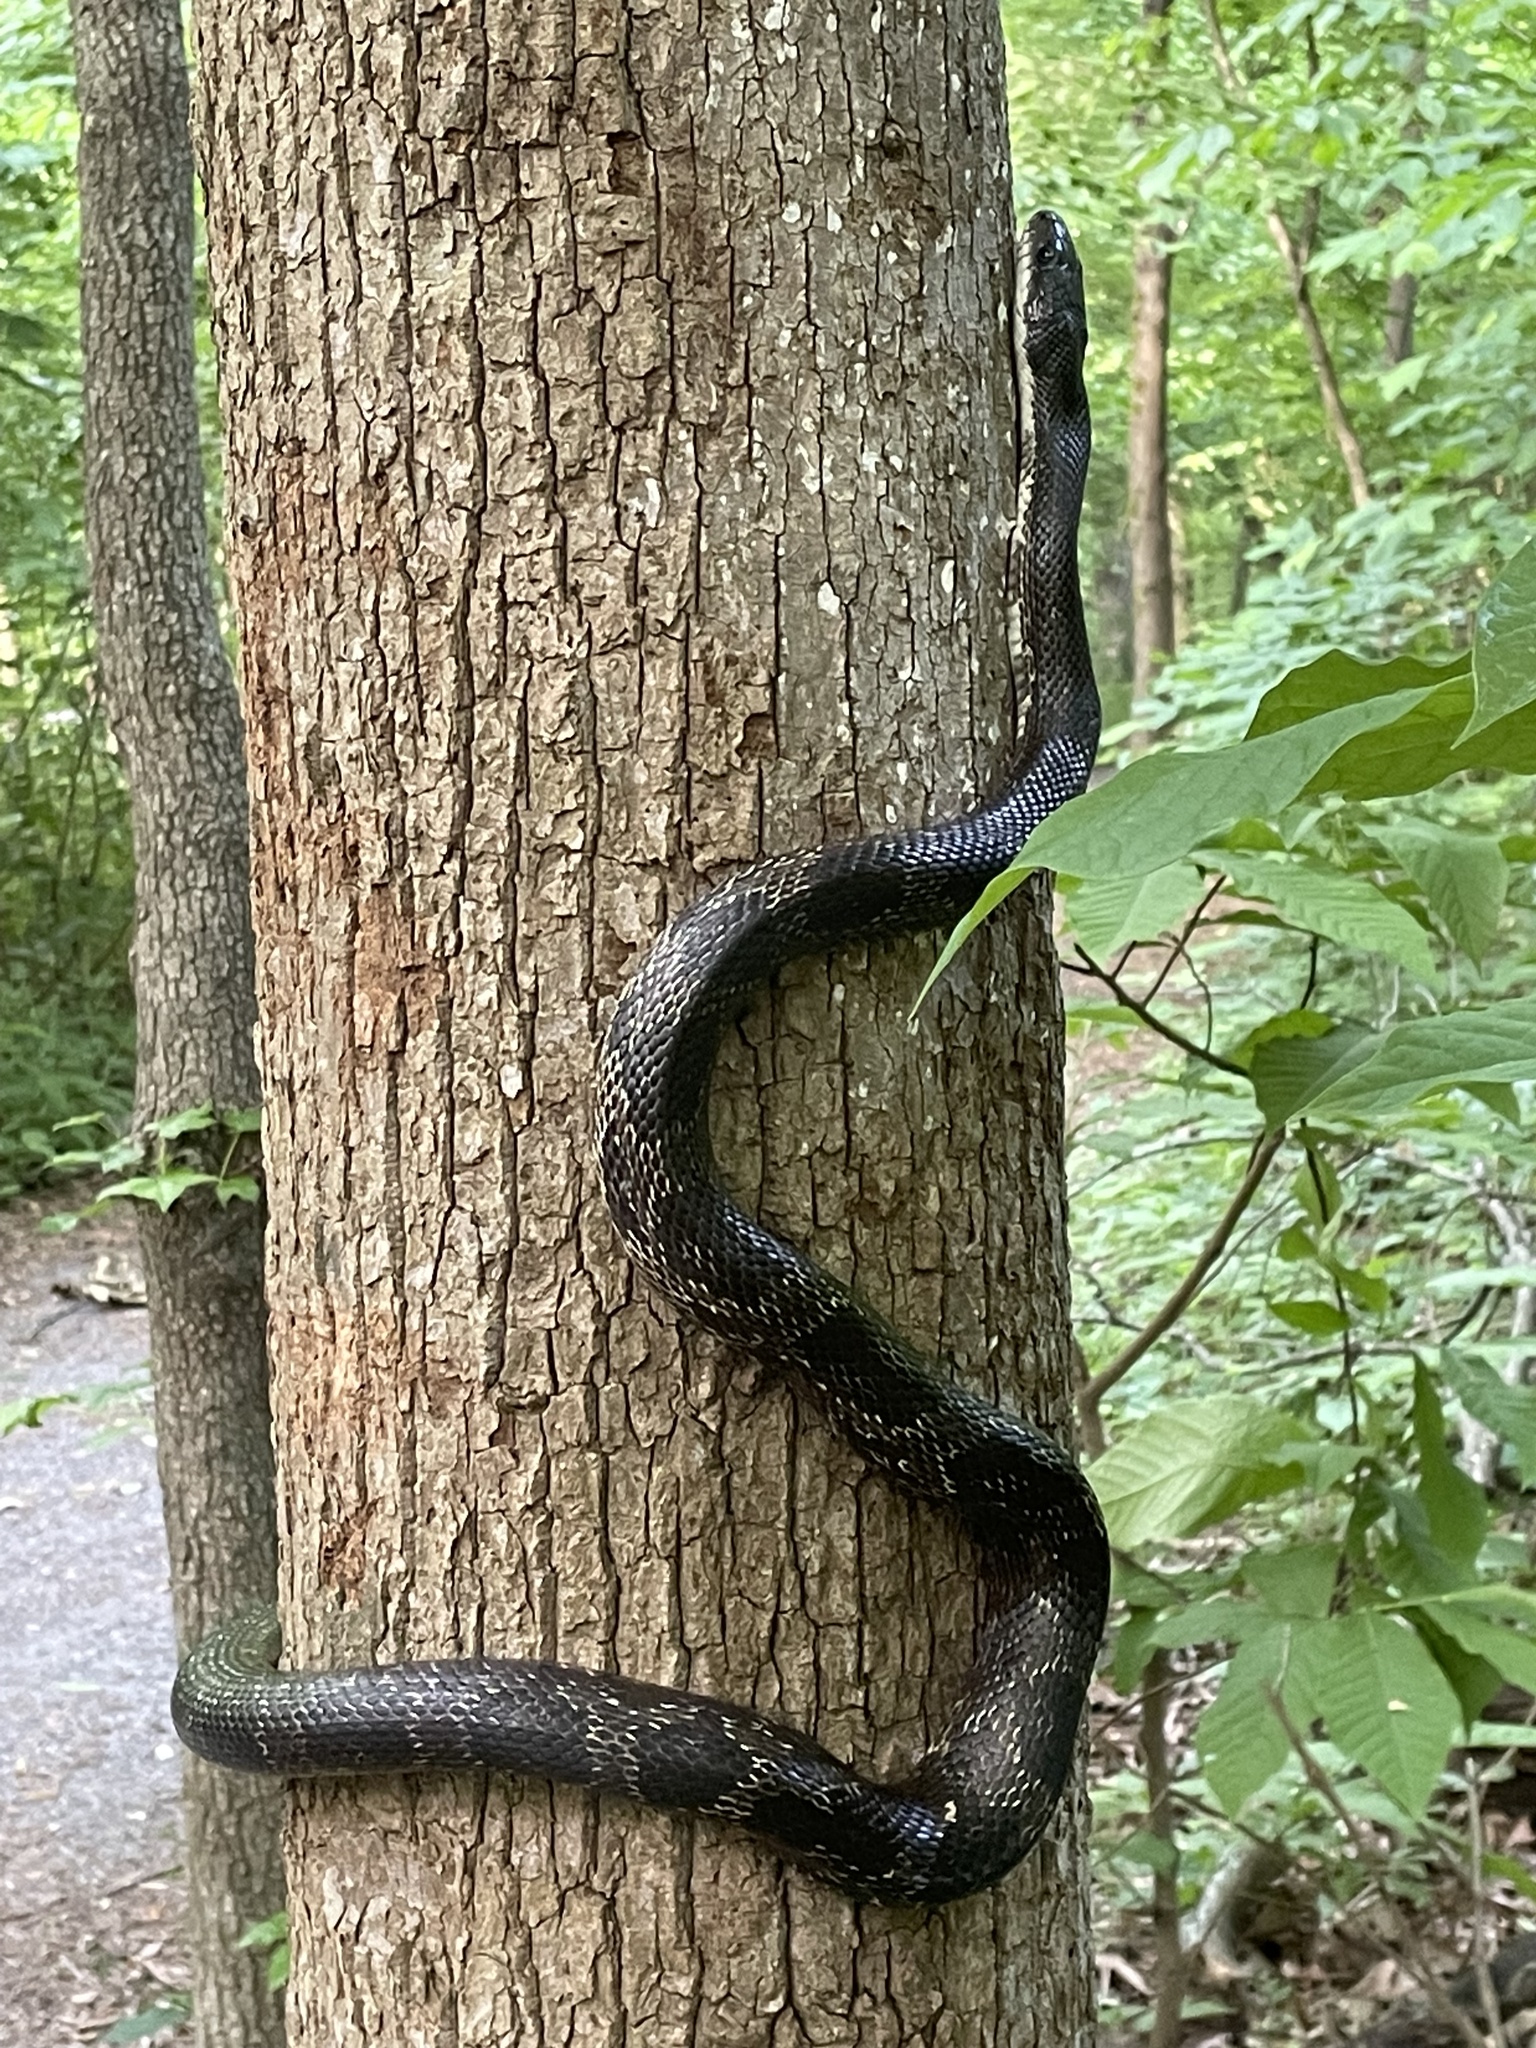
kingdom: Animalia
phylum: Chordata
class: Squamata
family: Colubridae
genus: Pantherophis
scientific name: Pantherophis spiloides
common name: Gray rat snake
